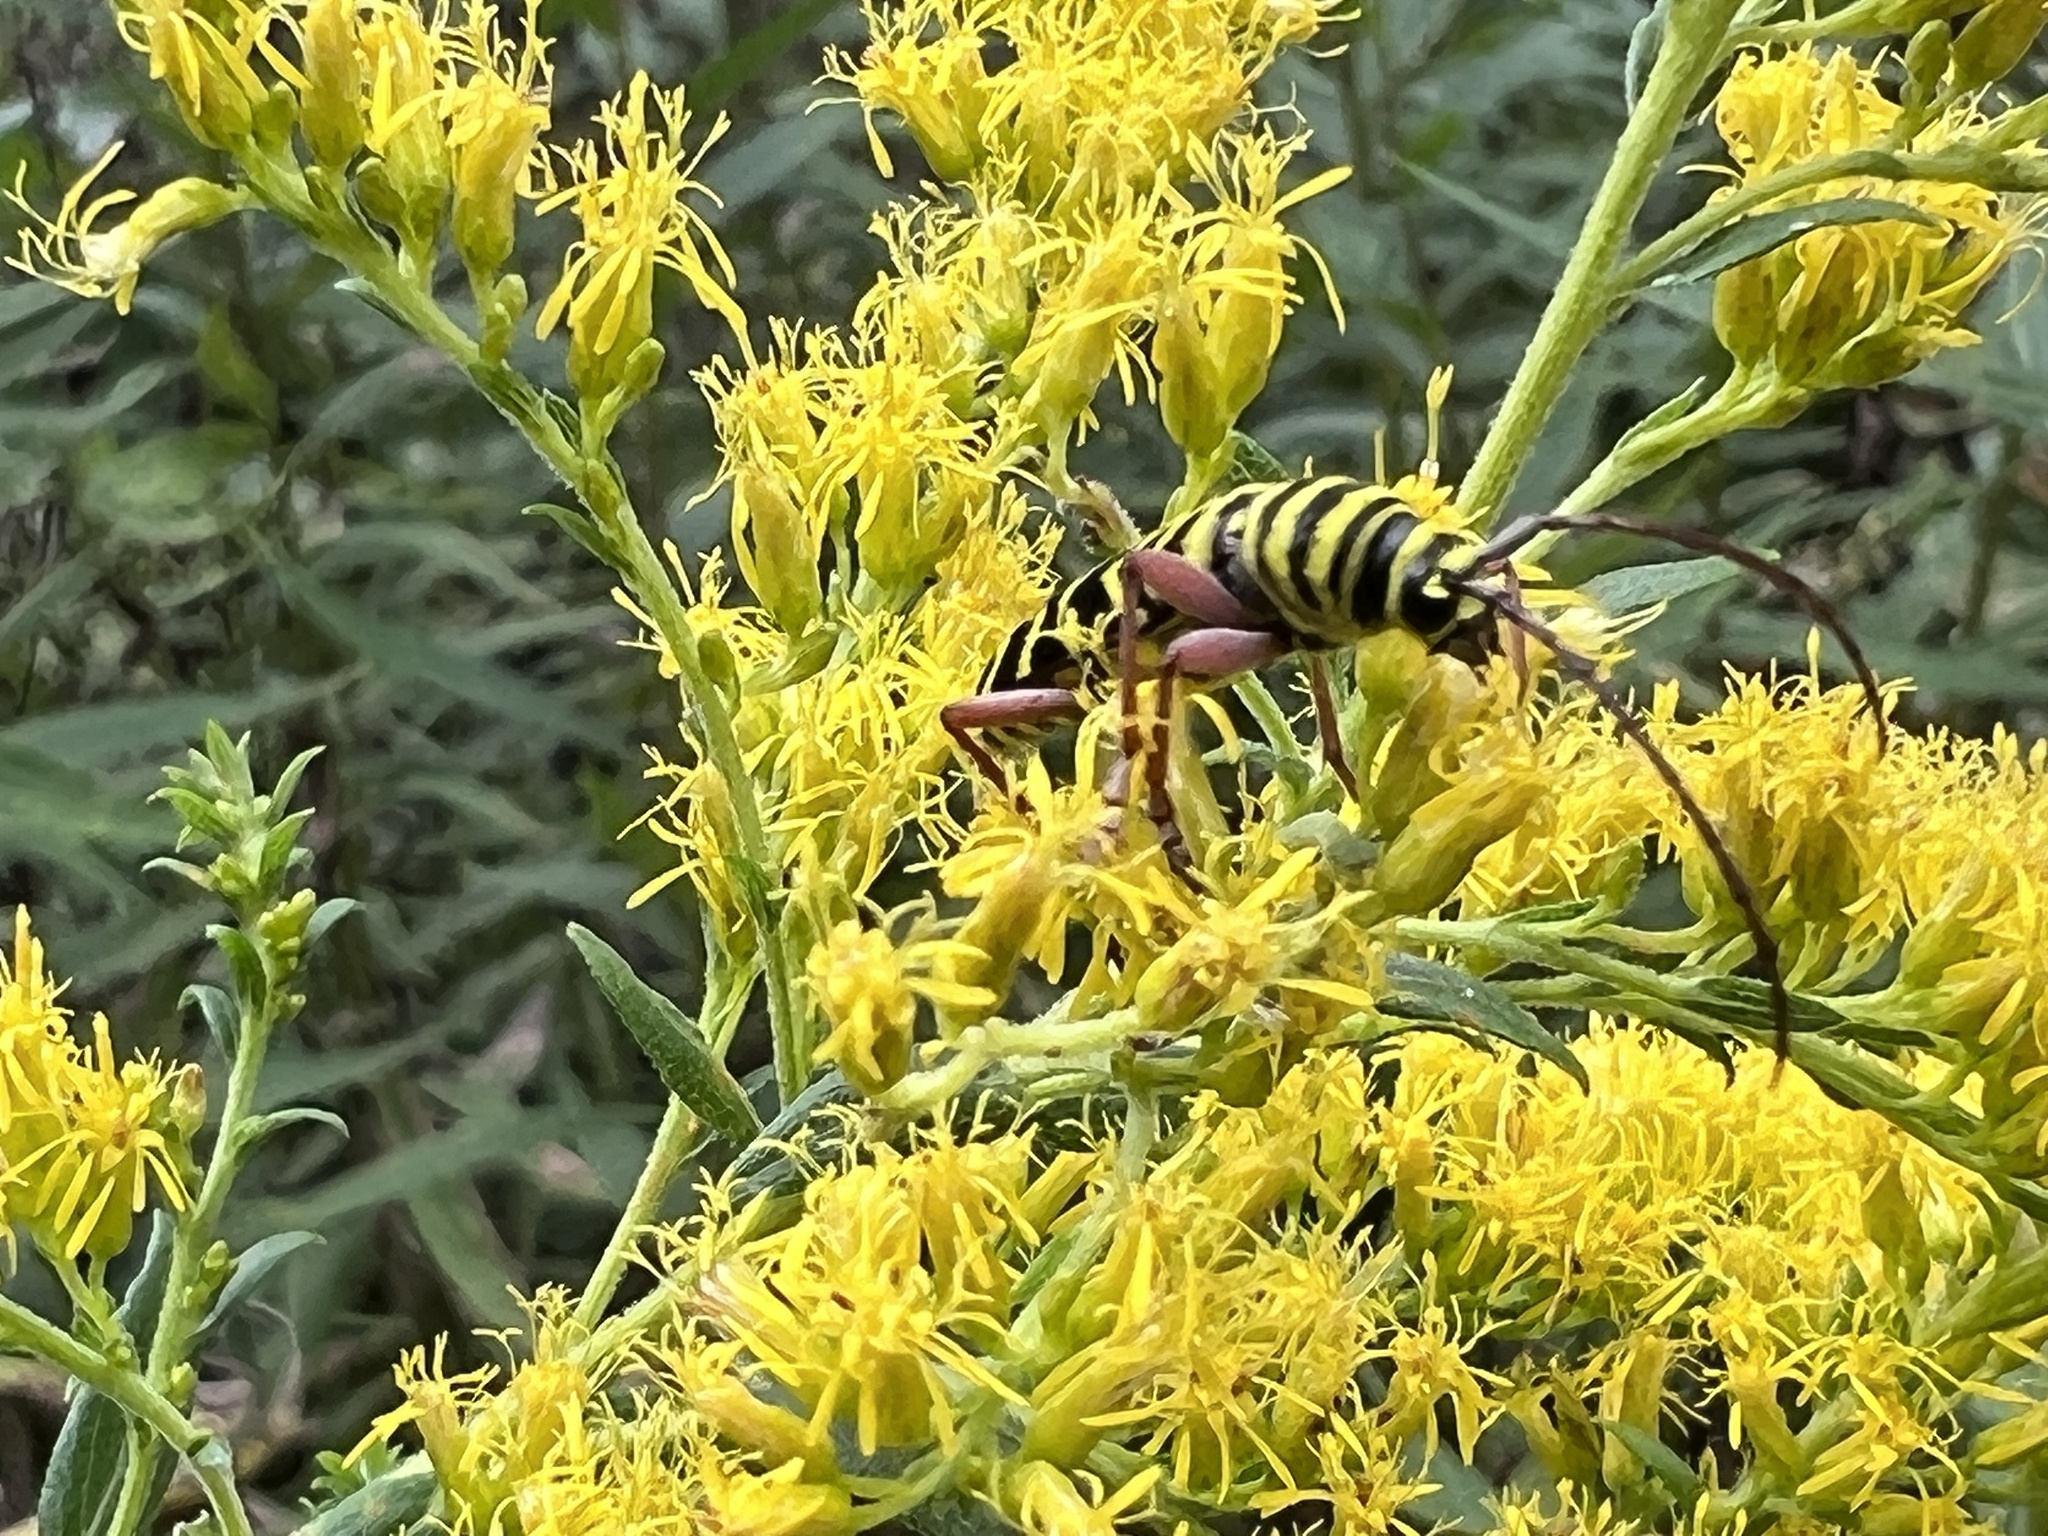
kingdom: Animalia
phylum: Arthropoda
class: Insecta
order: Coleoptera
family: Cerambycidae
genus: Megacyllene
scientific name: Megacyllene robiniae
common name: Locust borer
